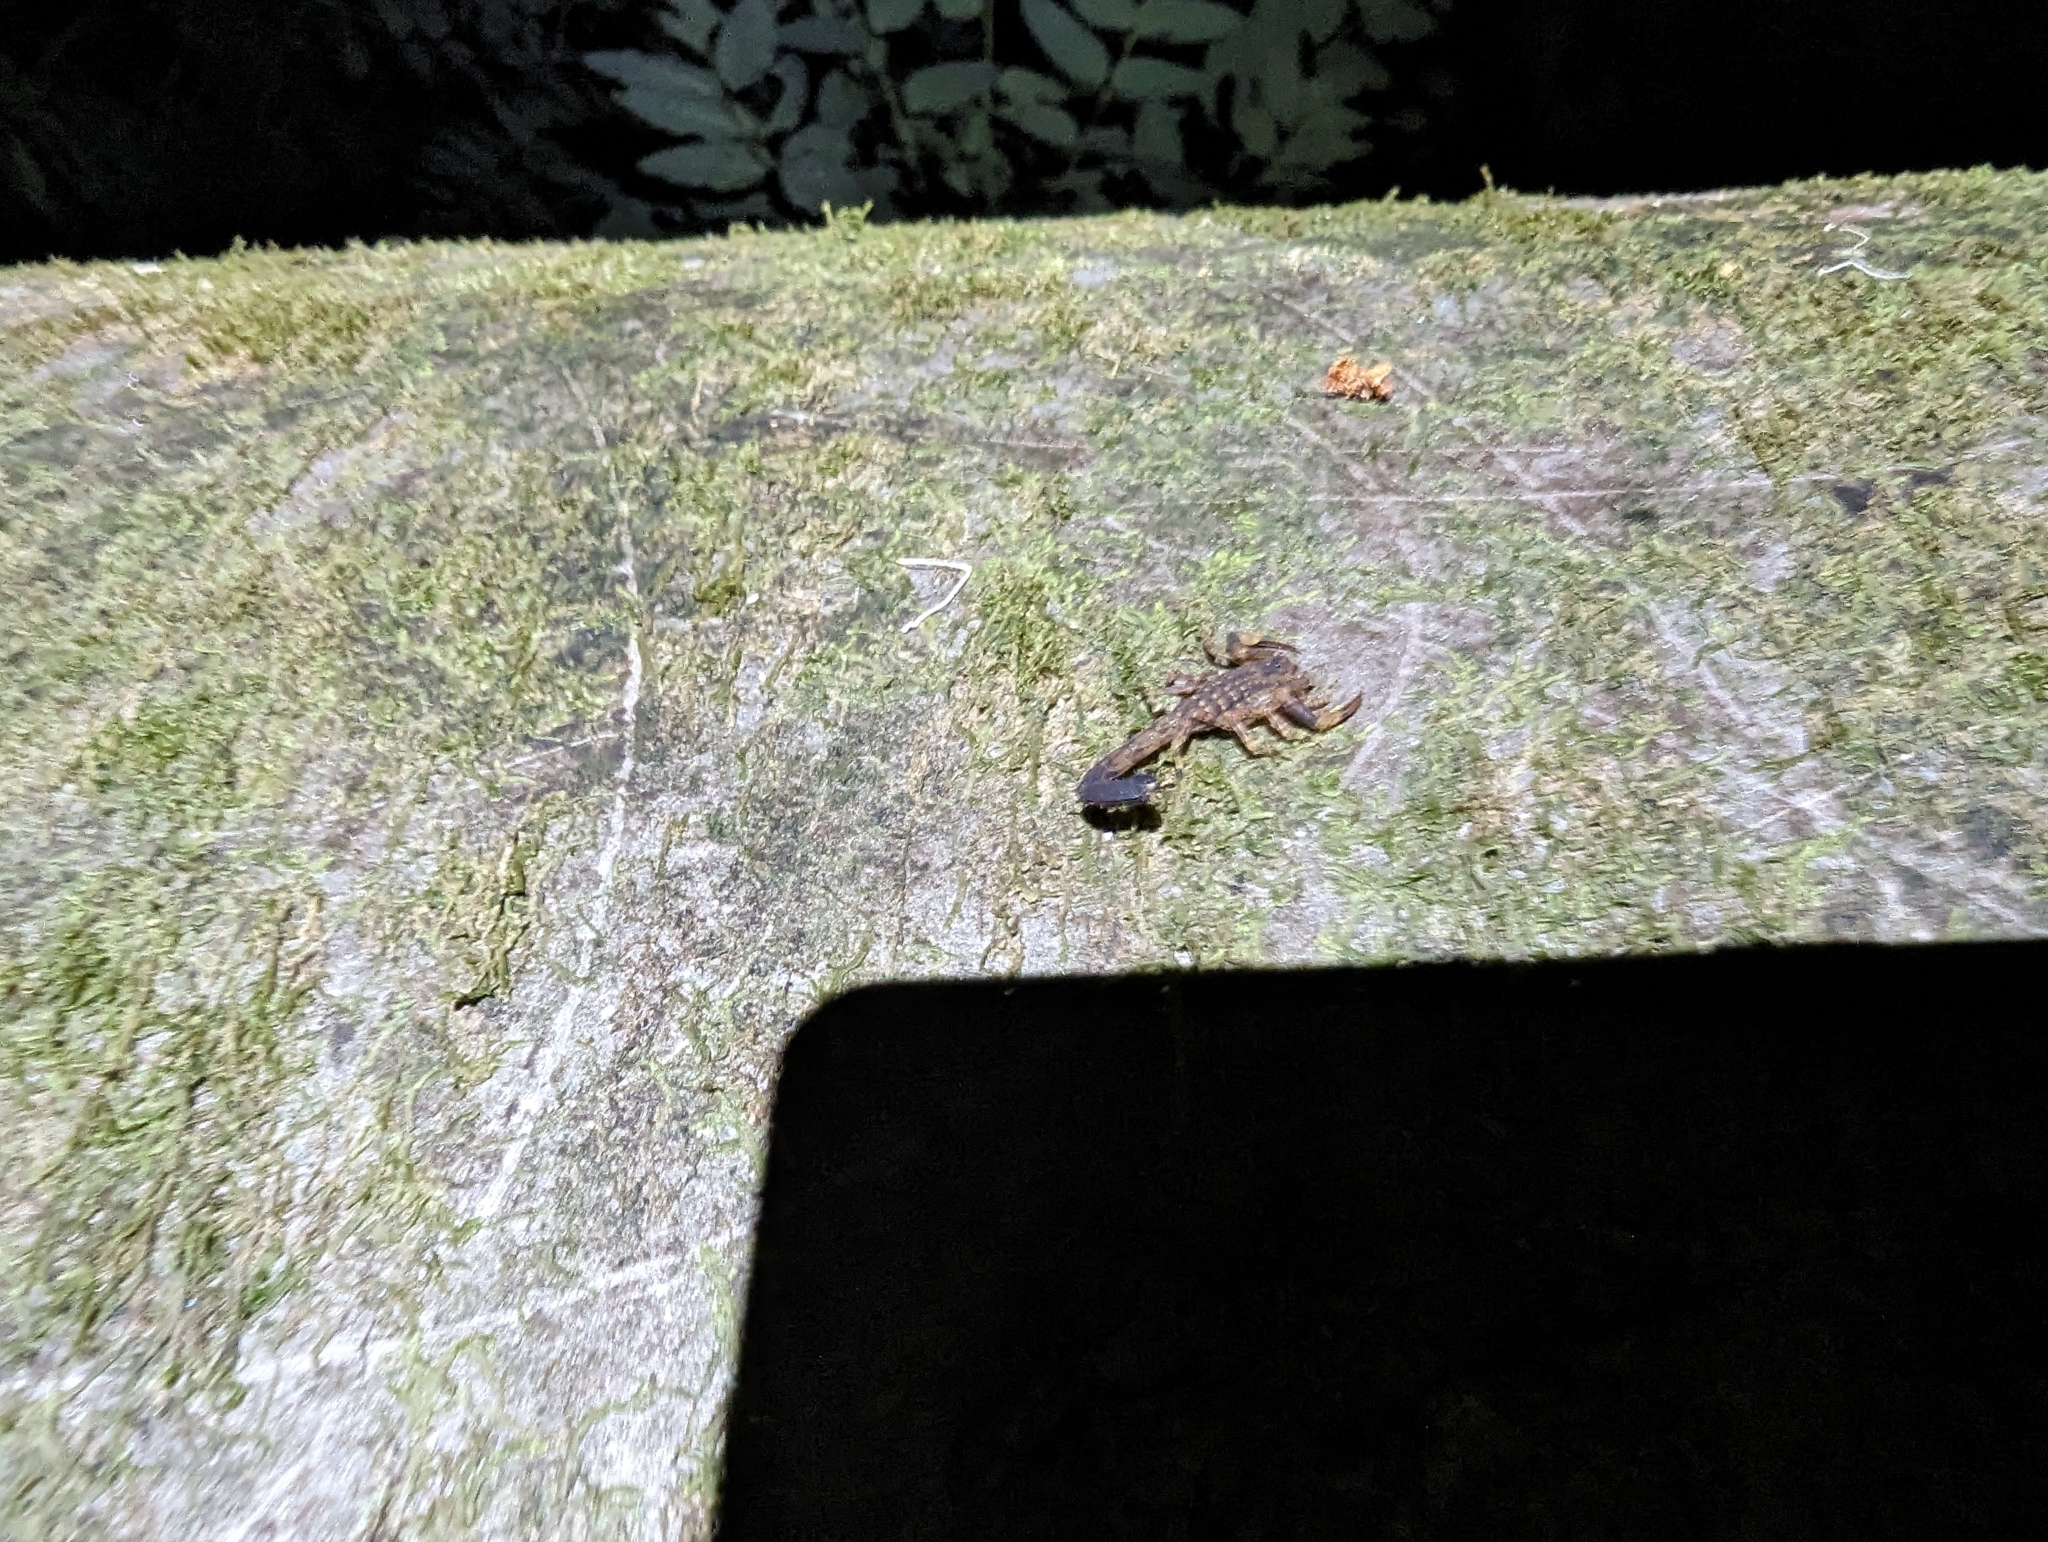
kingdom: Animalia
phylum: Arthropoda
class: Arachnida
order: Scorpiones
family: Buthidae
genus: Lychas
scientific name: Lychas variatus
